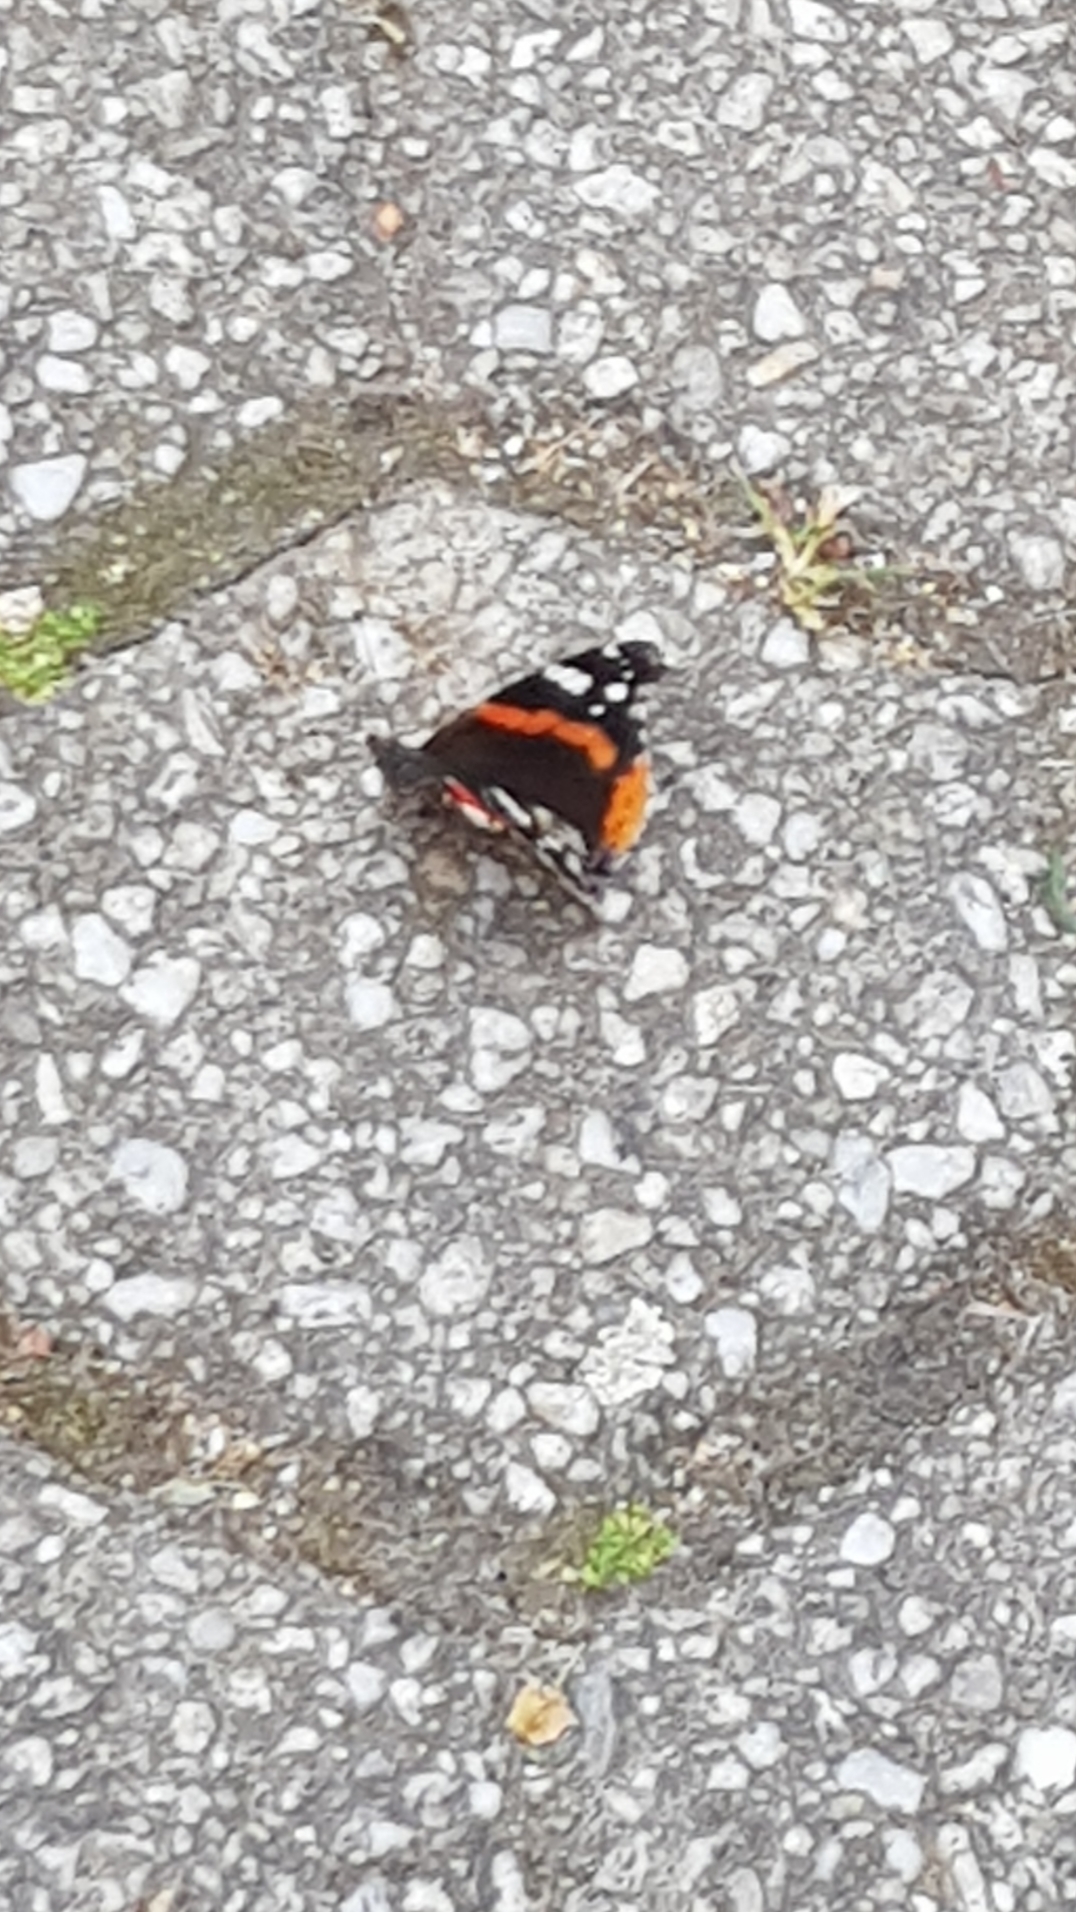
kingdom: Animalia
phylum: Arthropoda
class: Insecta
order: Lepidoptera
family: Nymphalidae
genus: Vanessa
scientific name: Vanessa atalanta
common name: Red admiral
